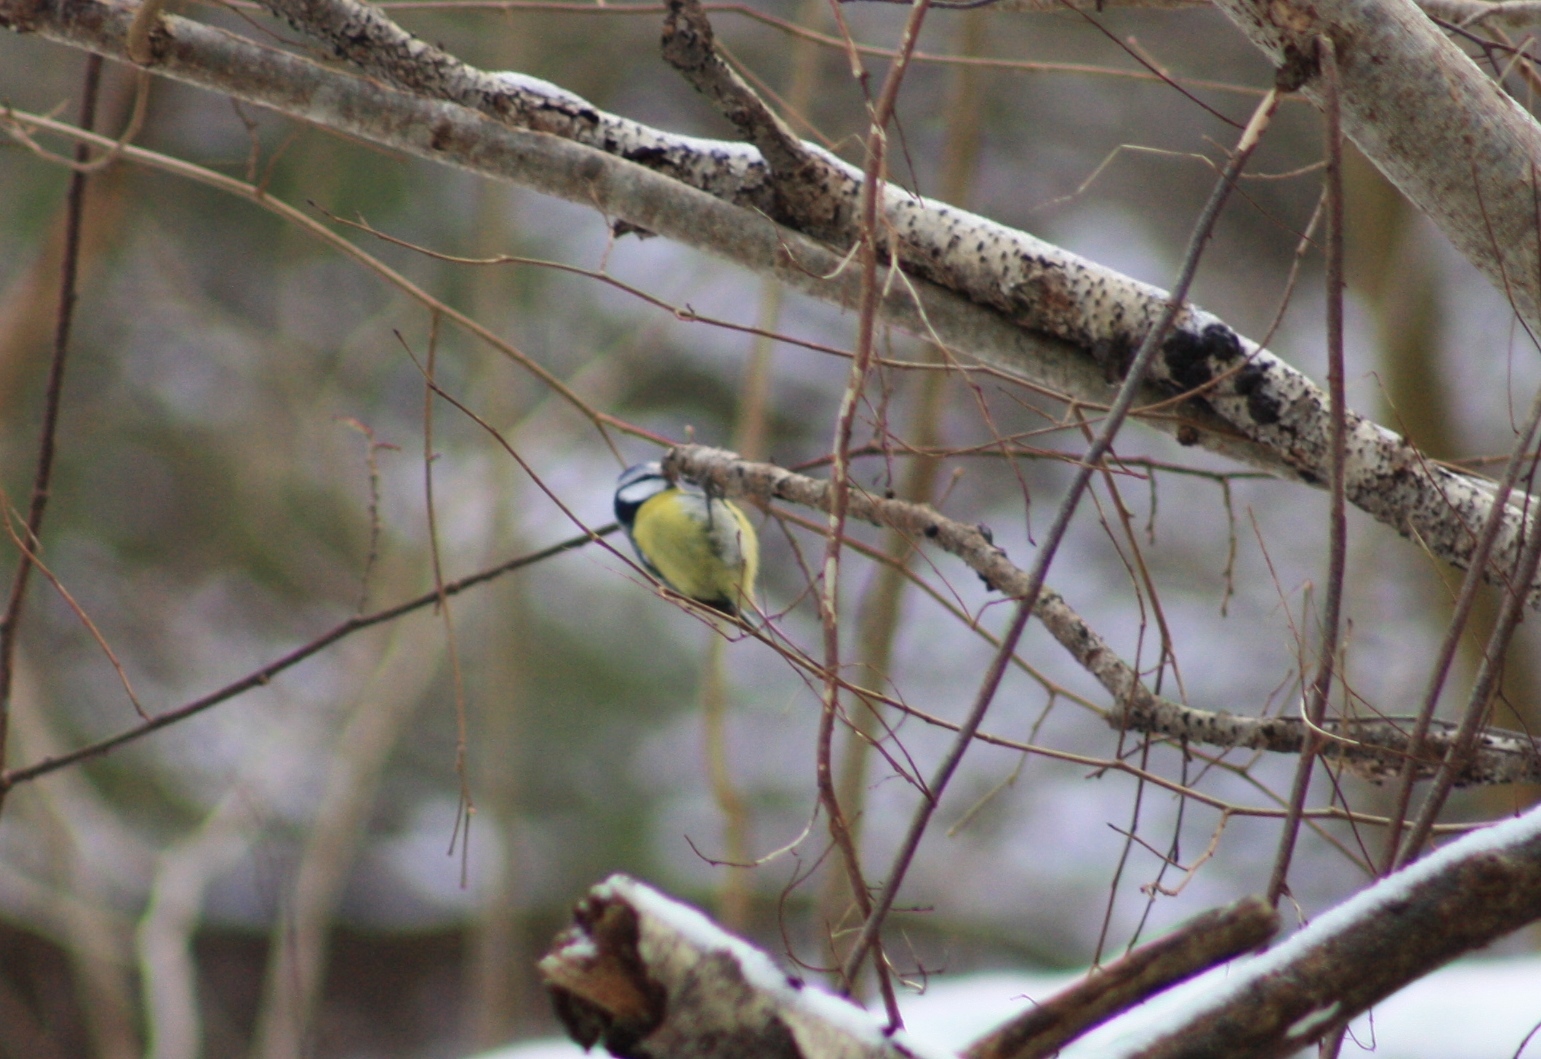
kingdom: Animalia
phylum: Chordata
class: Aves
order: Passeriformes
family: Paridae
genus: Cyanistes
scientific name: Cyanistes caeruleus
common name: Eurasian blue tit
